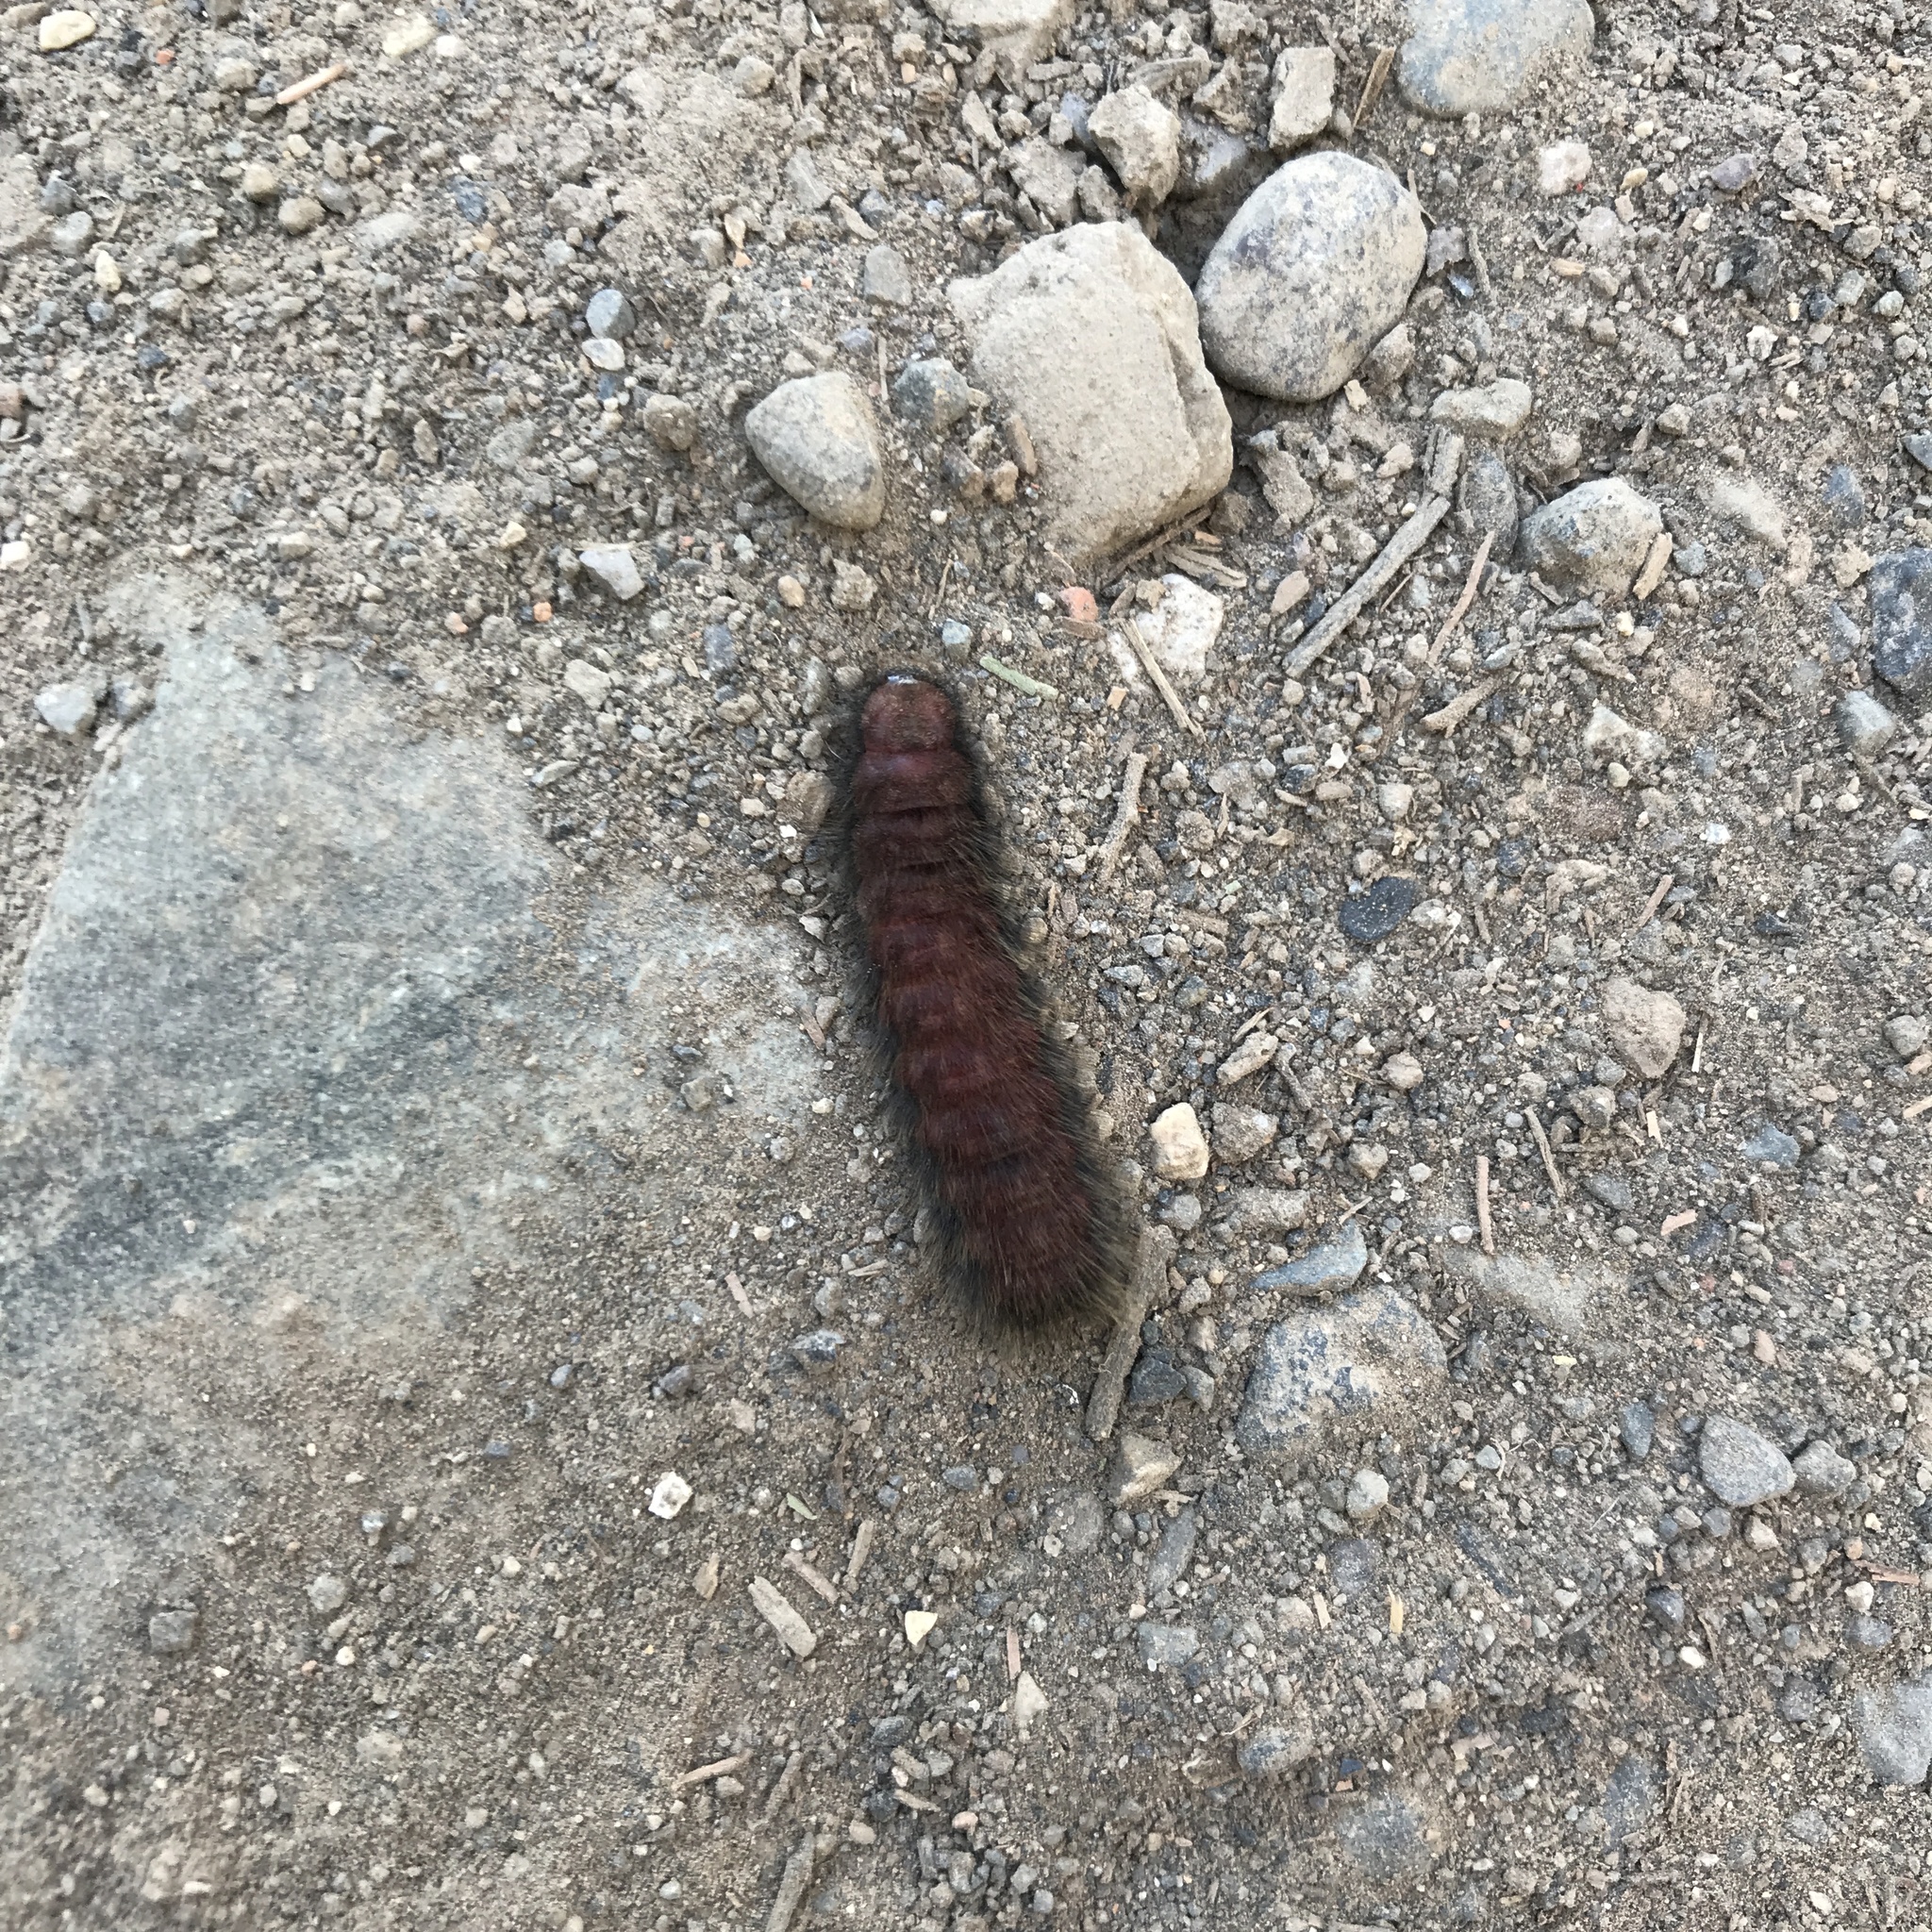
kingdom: Animalia
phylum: Arthropoda
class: Insecta
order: Coleoptera
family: Melyridae
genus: Astylus
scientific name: Astylus
